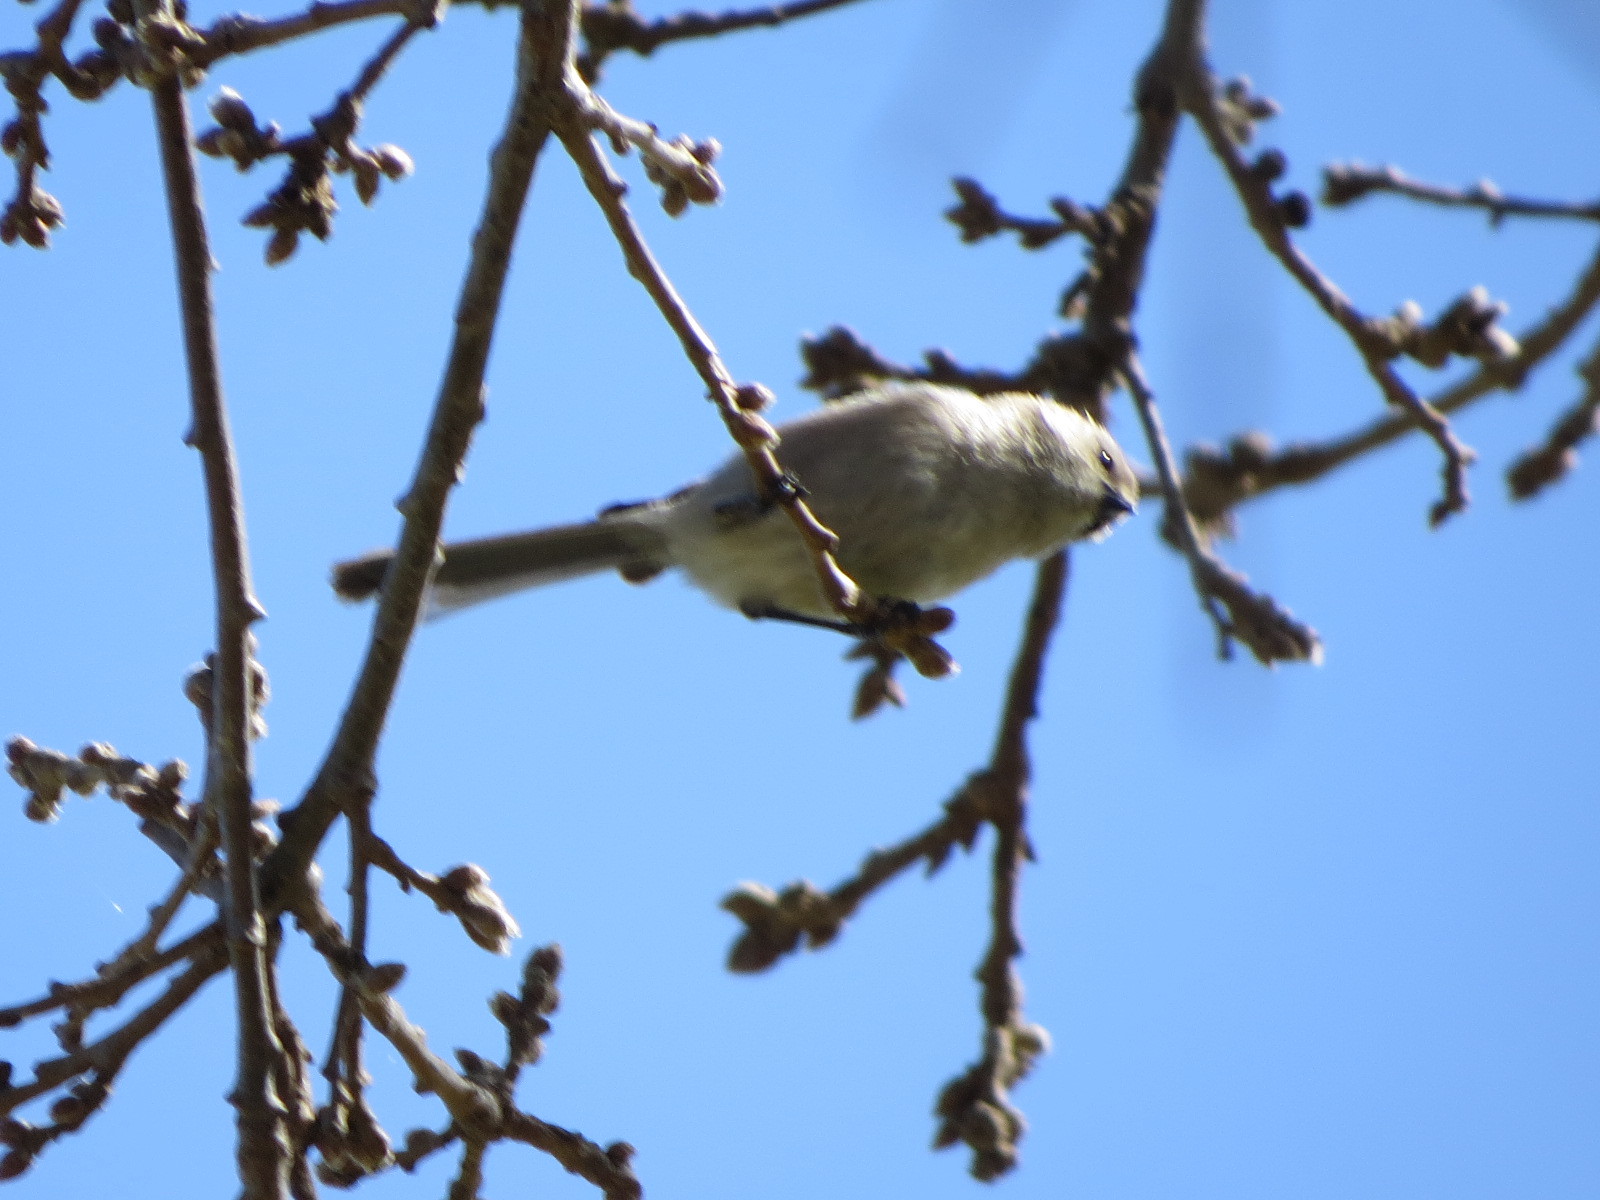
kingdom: Animalia
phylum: Chordata
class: Aves
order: Passeriformes
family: Aegithalidae
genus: Psaltriparus
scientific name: Psaltriparus minimus
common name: American bushtit
